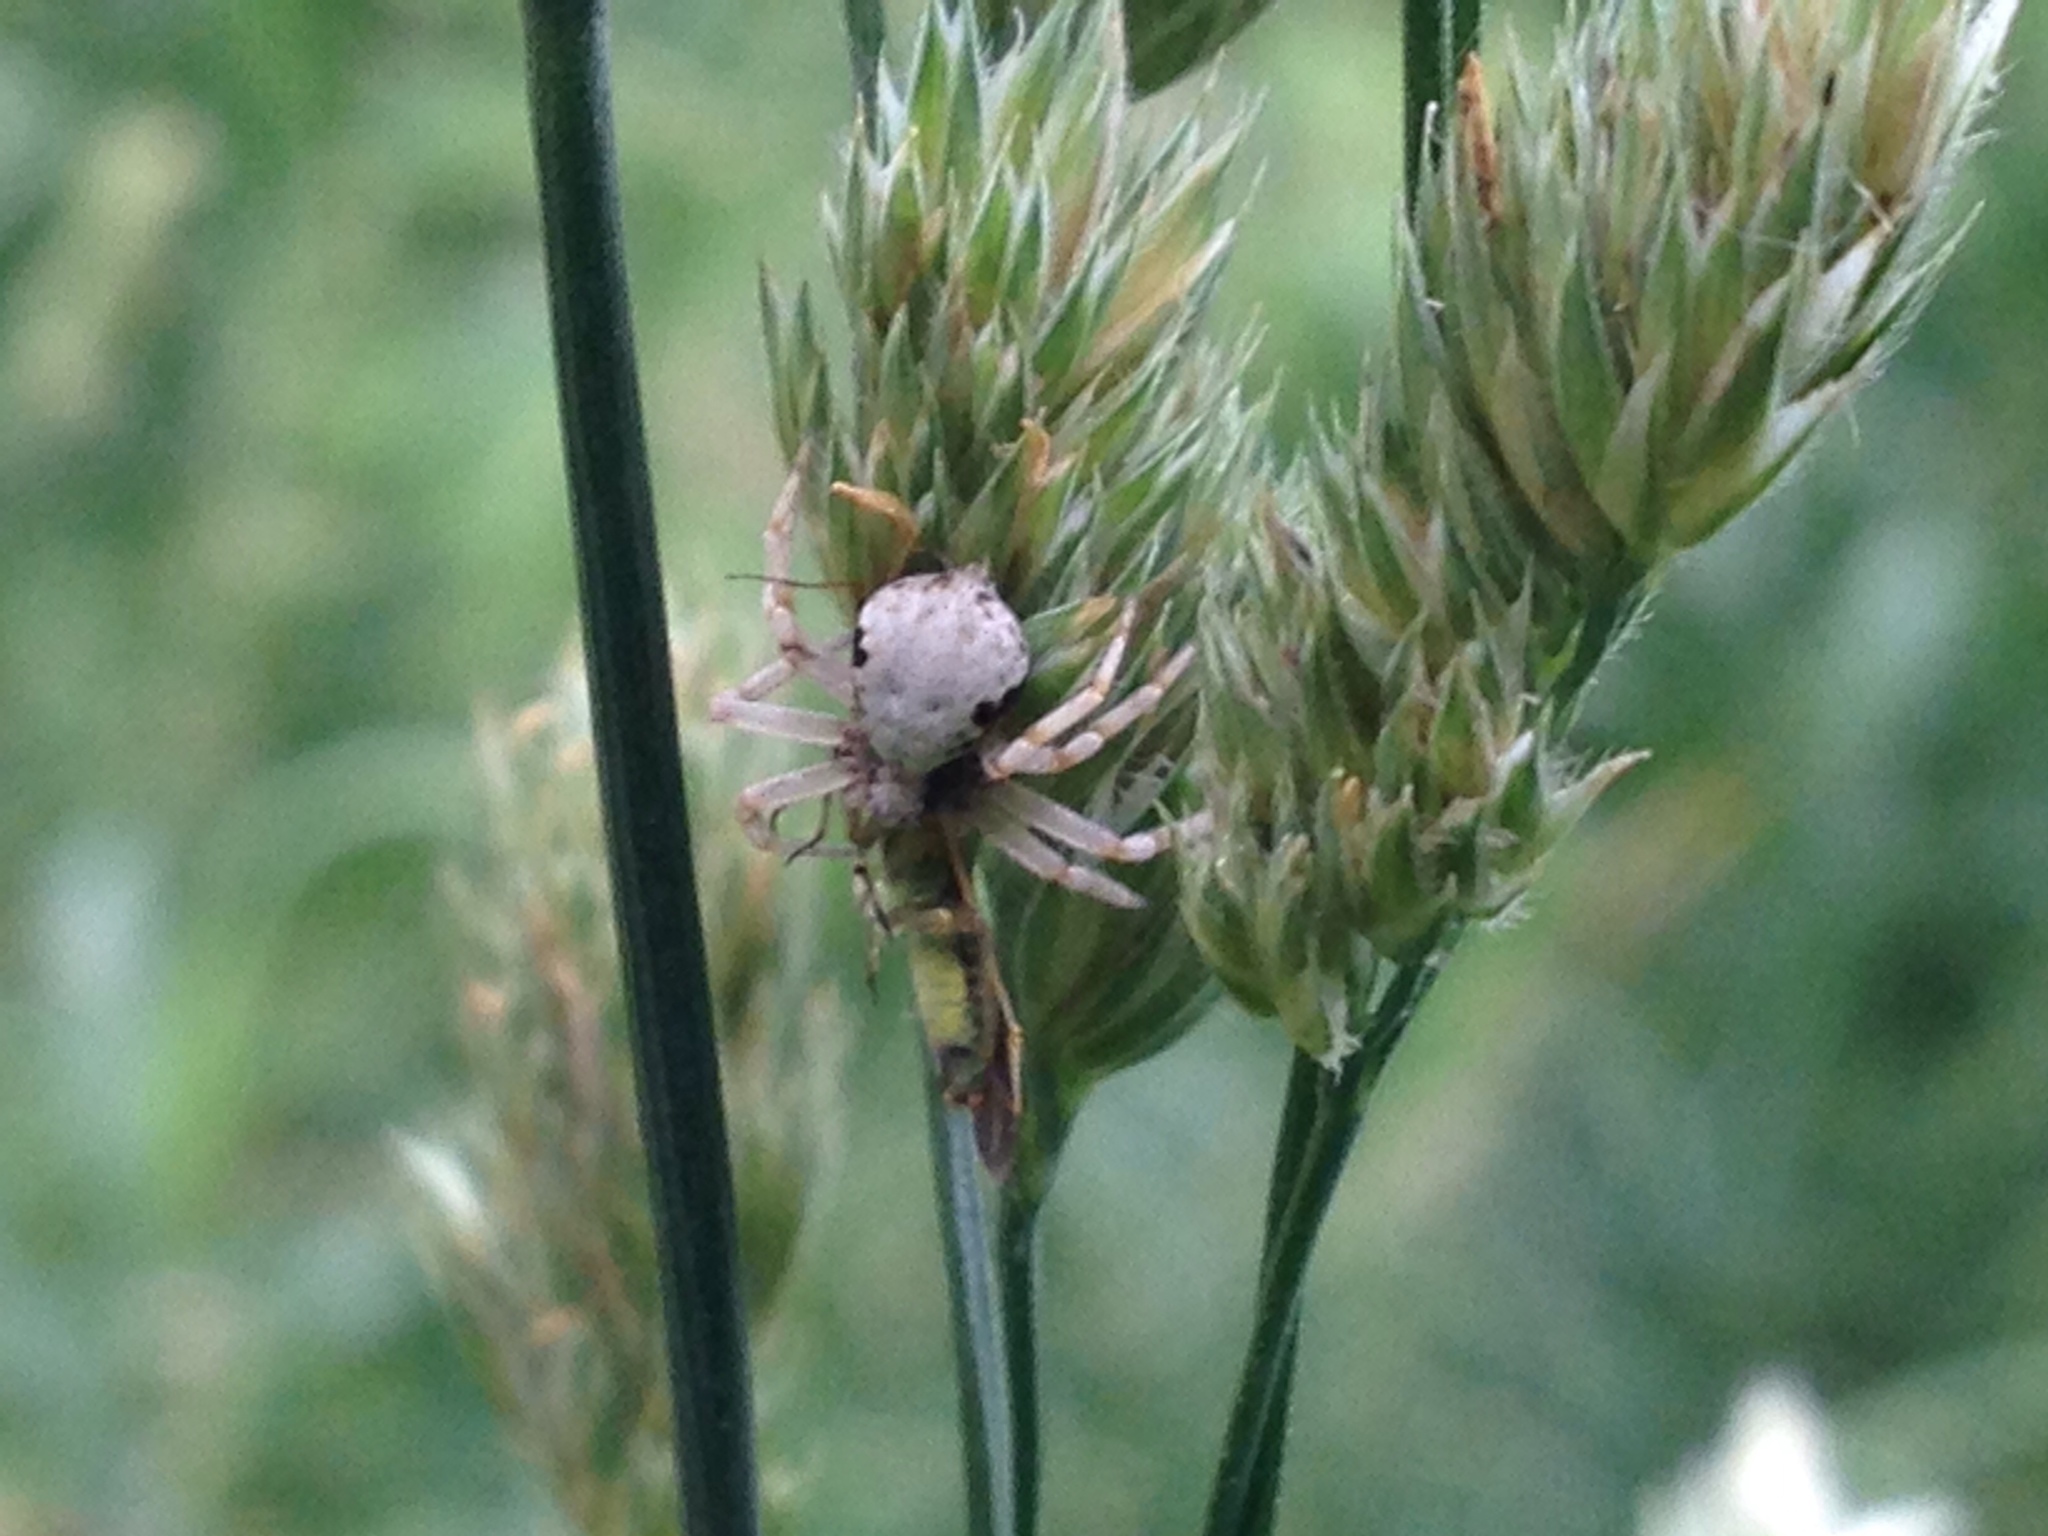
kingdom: Animalia
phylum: Arthropoda
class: Arachnida
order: Araneae
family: Philodromidae
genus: Philodromus
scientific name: Philodromus marxi
